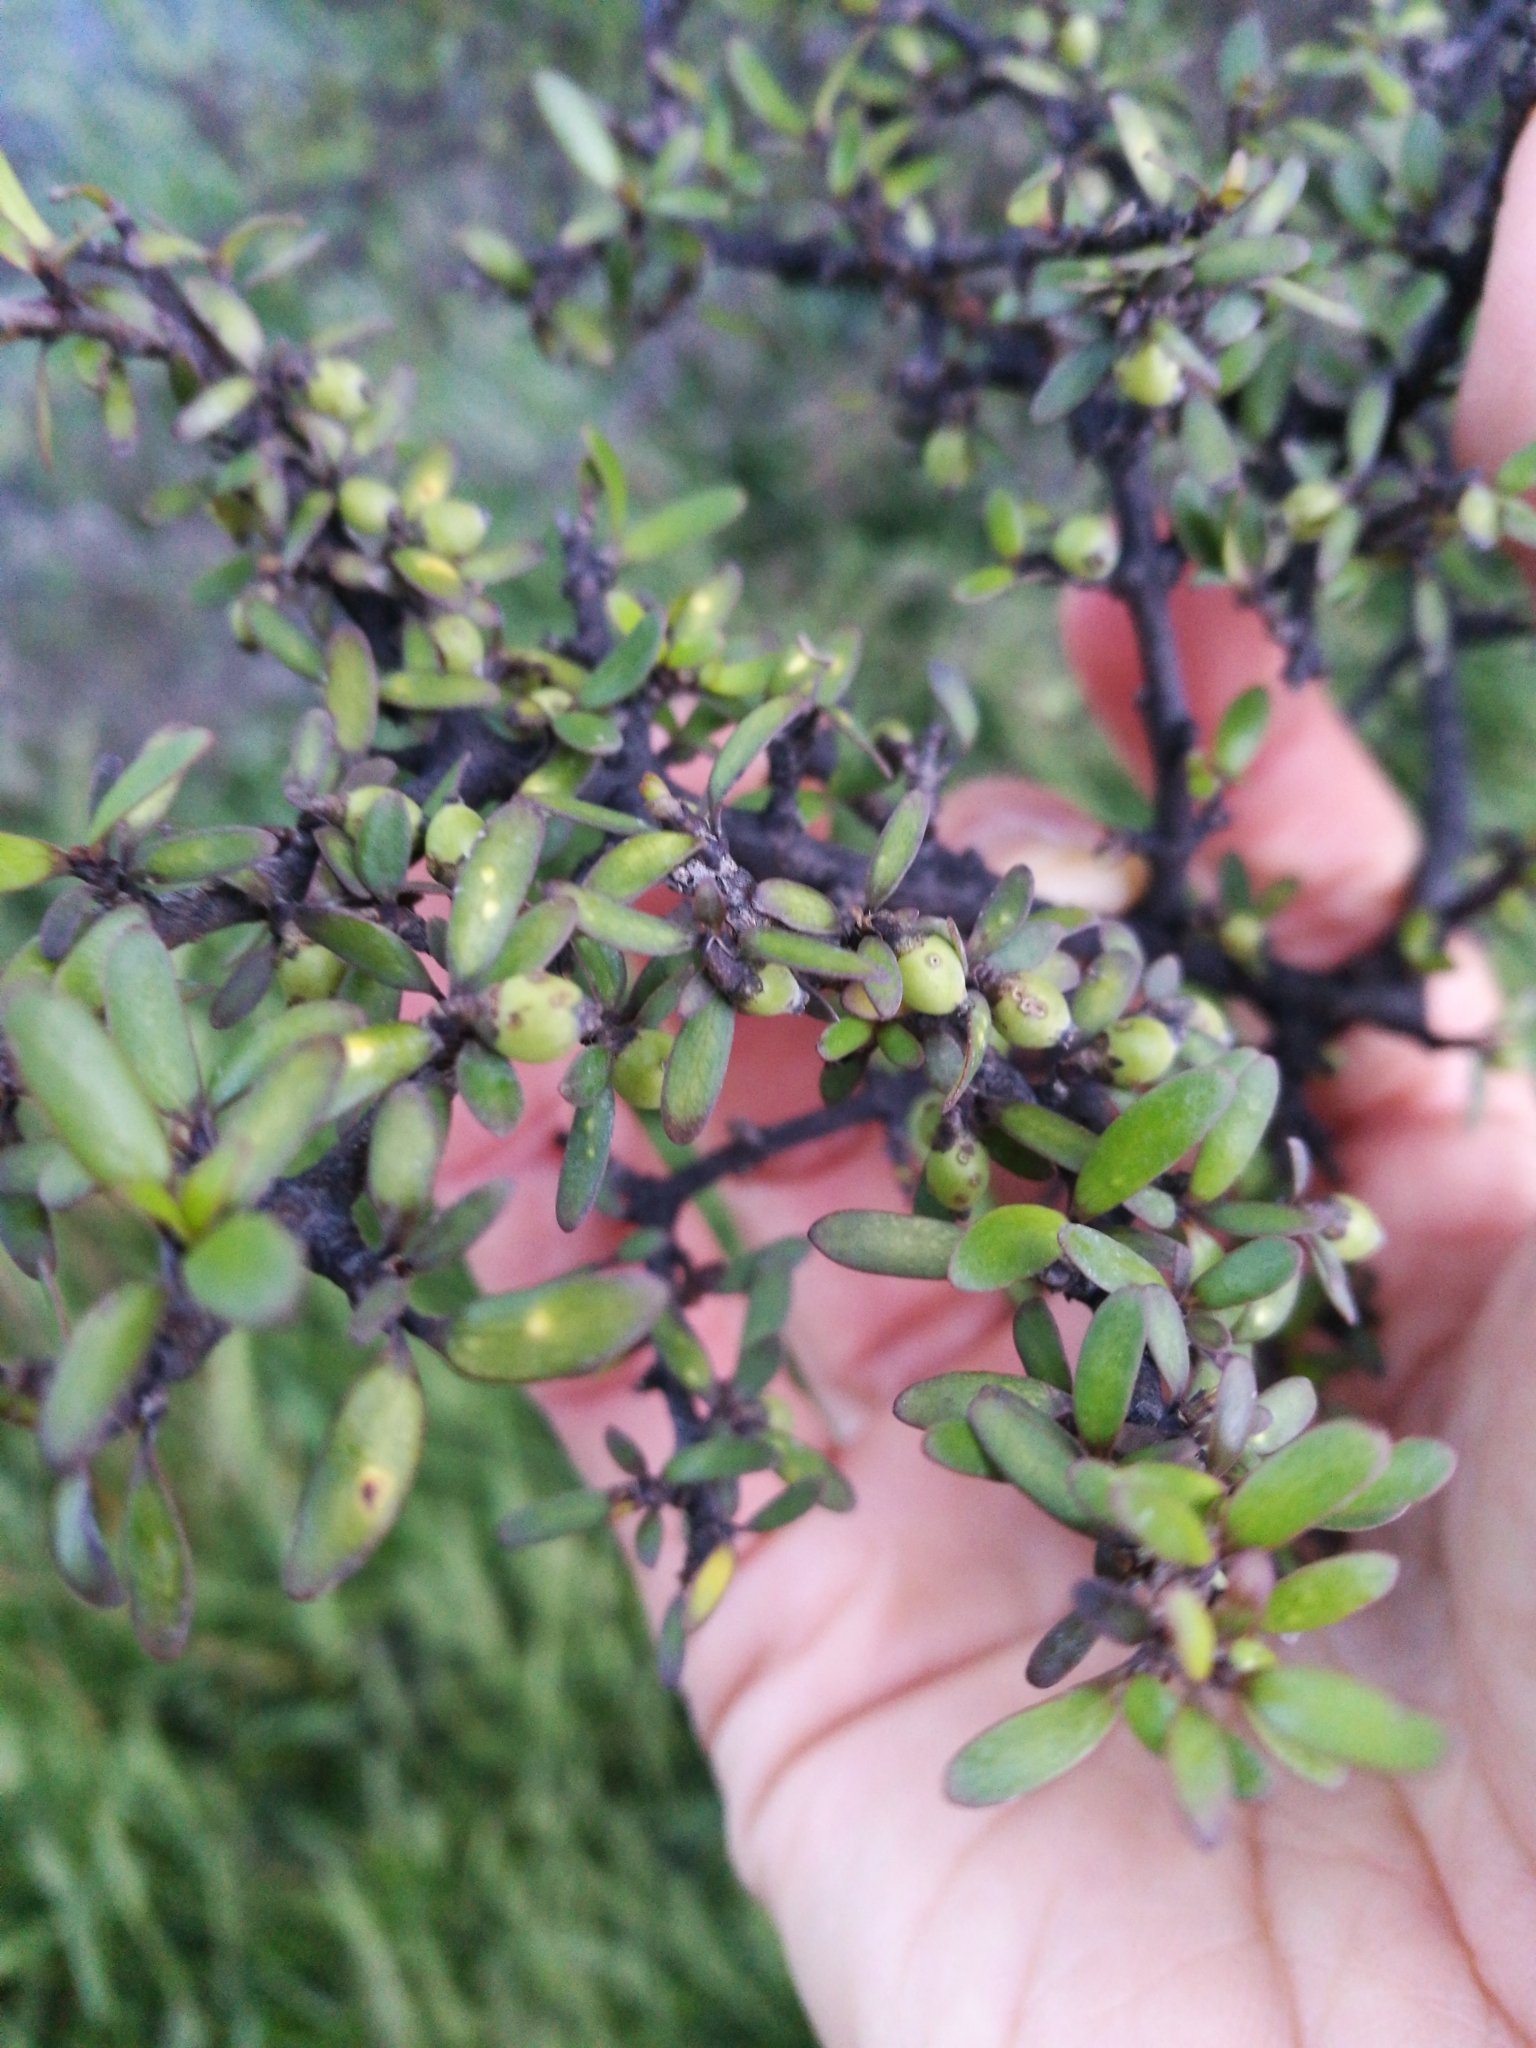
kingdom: Plantae
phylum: Tracheophyta
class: Magnoliopsida
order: Gentianales
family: Rubiaceae
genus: Coprosma
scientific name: Coprosma propinqua
